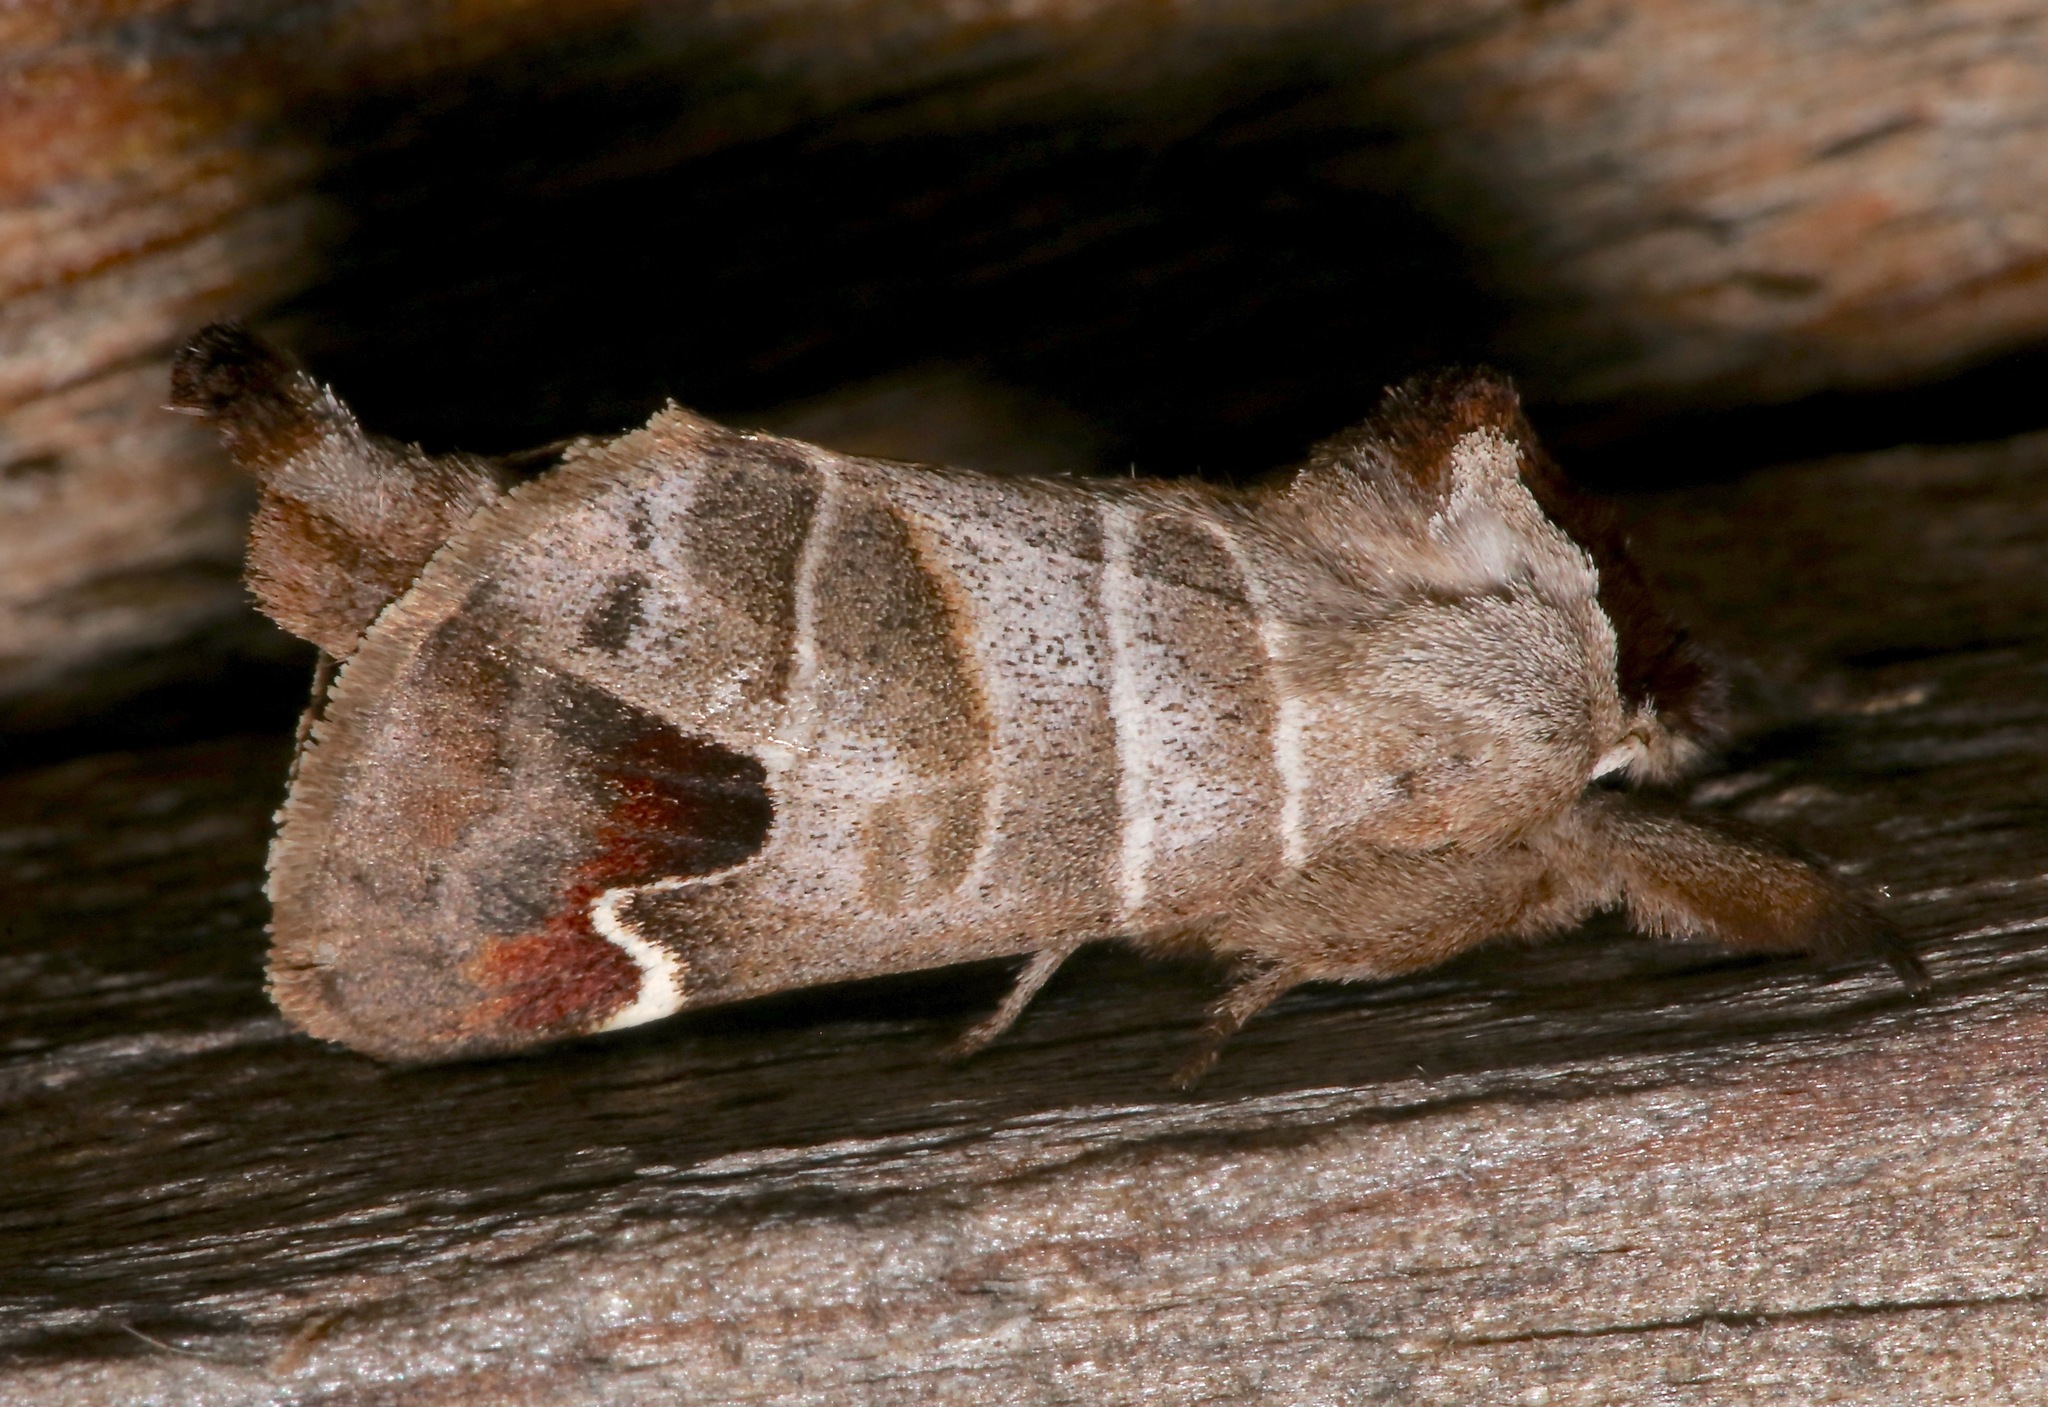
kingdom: Animalia
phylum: Arthropoda
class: Insecta
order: Lepidoptera
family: Notodontidae
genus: Clostera
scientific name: Clostera albosigma
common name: Sigmoid prominent
